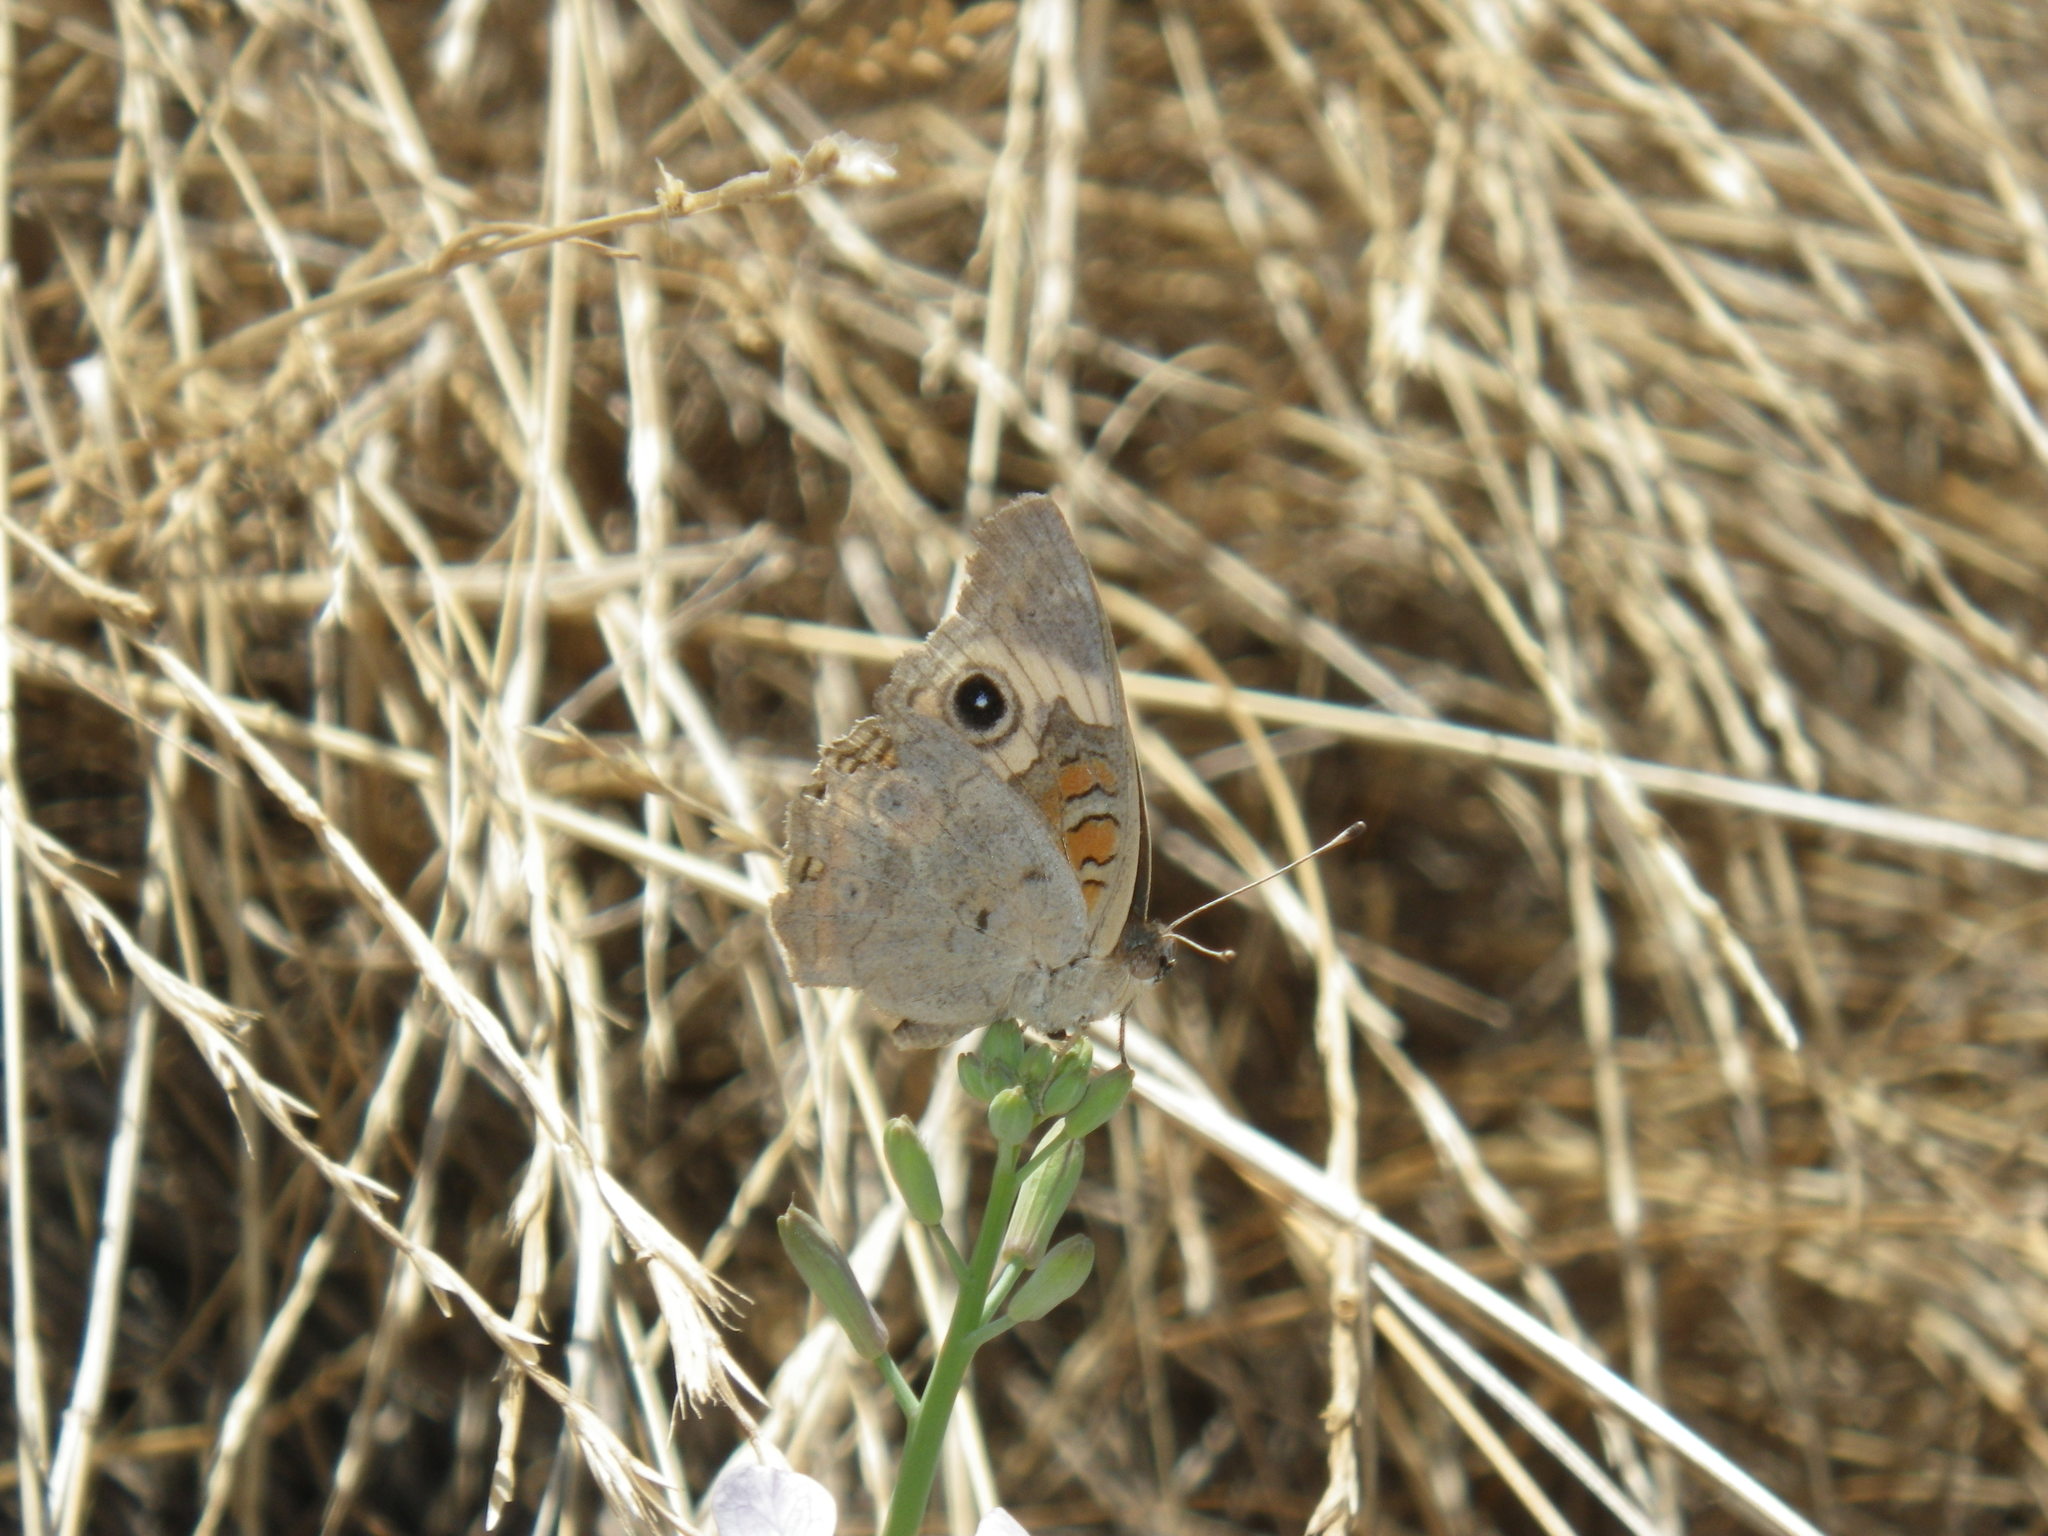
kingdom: Animalia
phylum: Arthropoda
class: Insecta
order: Lepidoptera
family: Nymphalidae
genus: Junonia
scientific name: Junonia grisea
